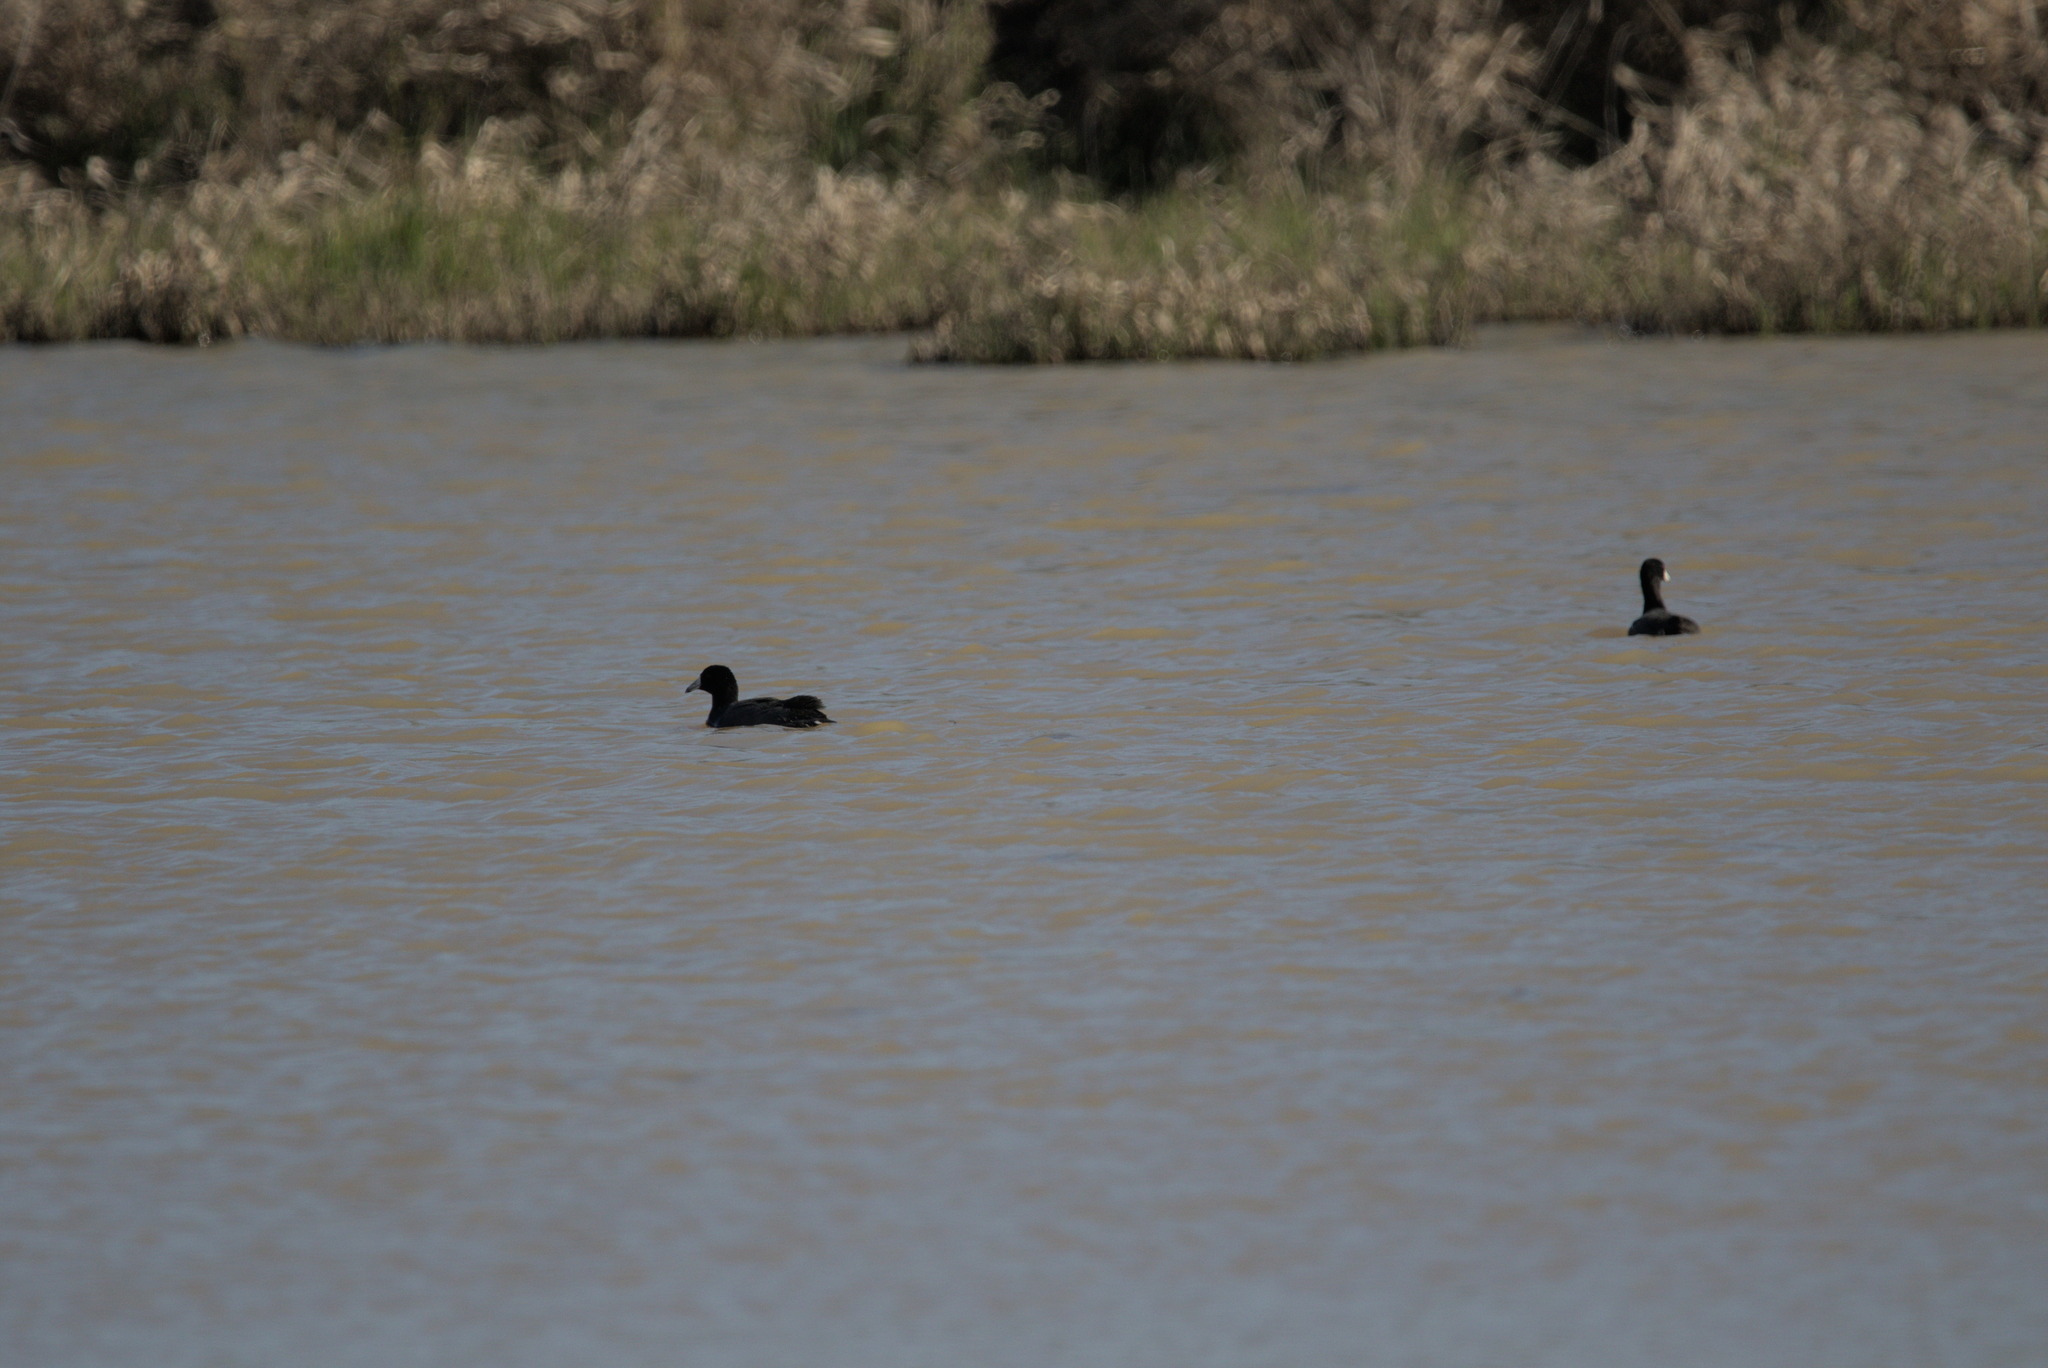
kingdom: Animalia
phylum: Chordata
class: Aves
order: Gruiformes
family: Rallidae
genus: Fulica
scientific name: Fulica americana
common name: American coot
